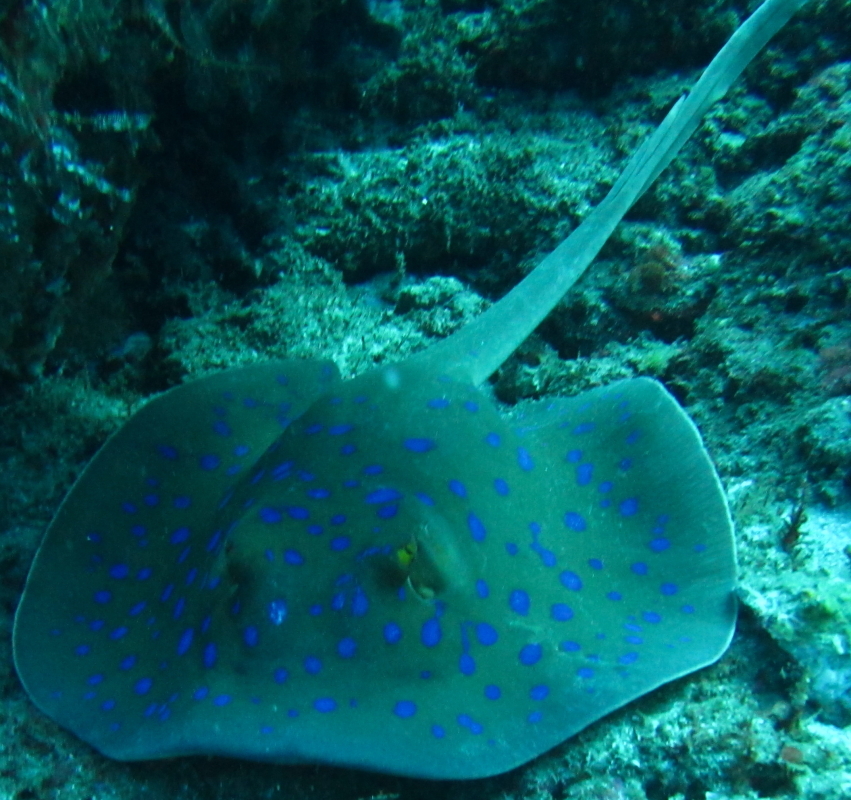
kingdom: Animalia
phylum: Chordata
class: Elasmobranchii
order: Myliobatiformes
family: Dasyatidae
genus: Taeniura
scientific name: Taeniura lymma
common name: Bluespotted ribbontail ray
